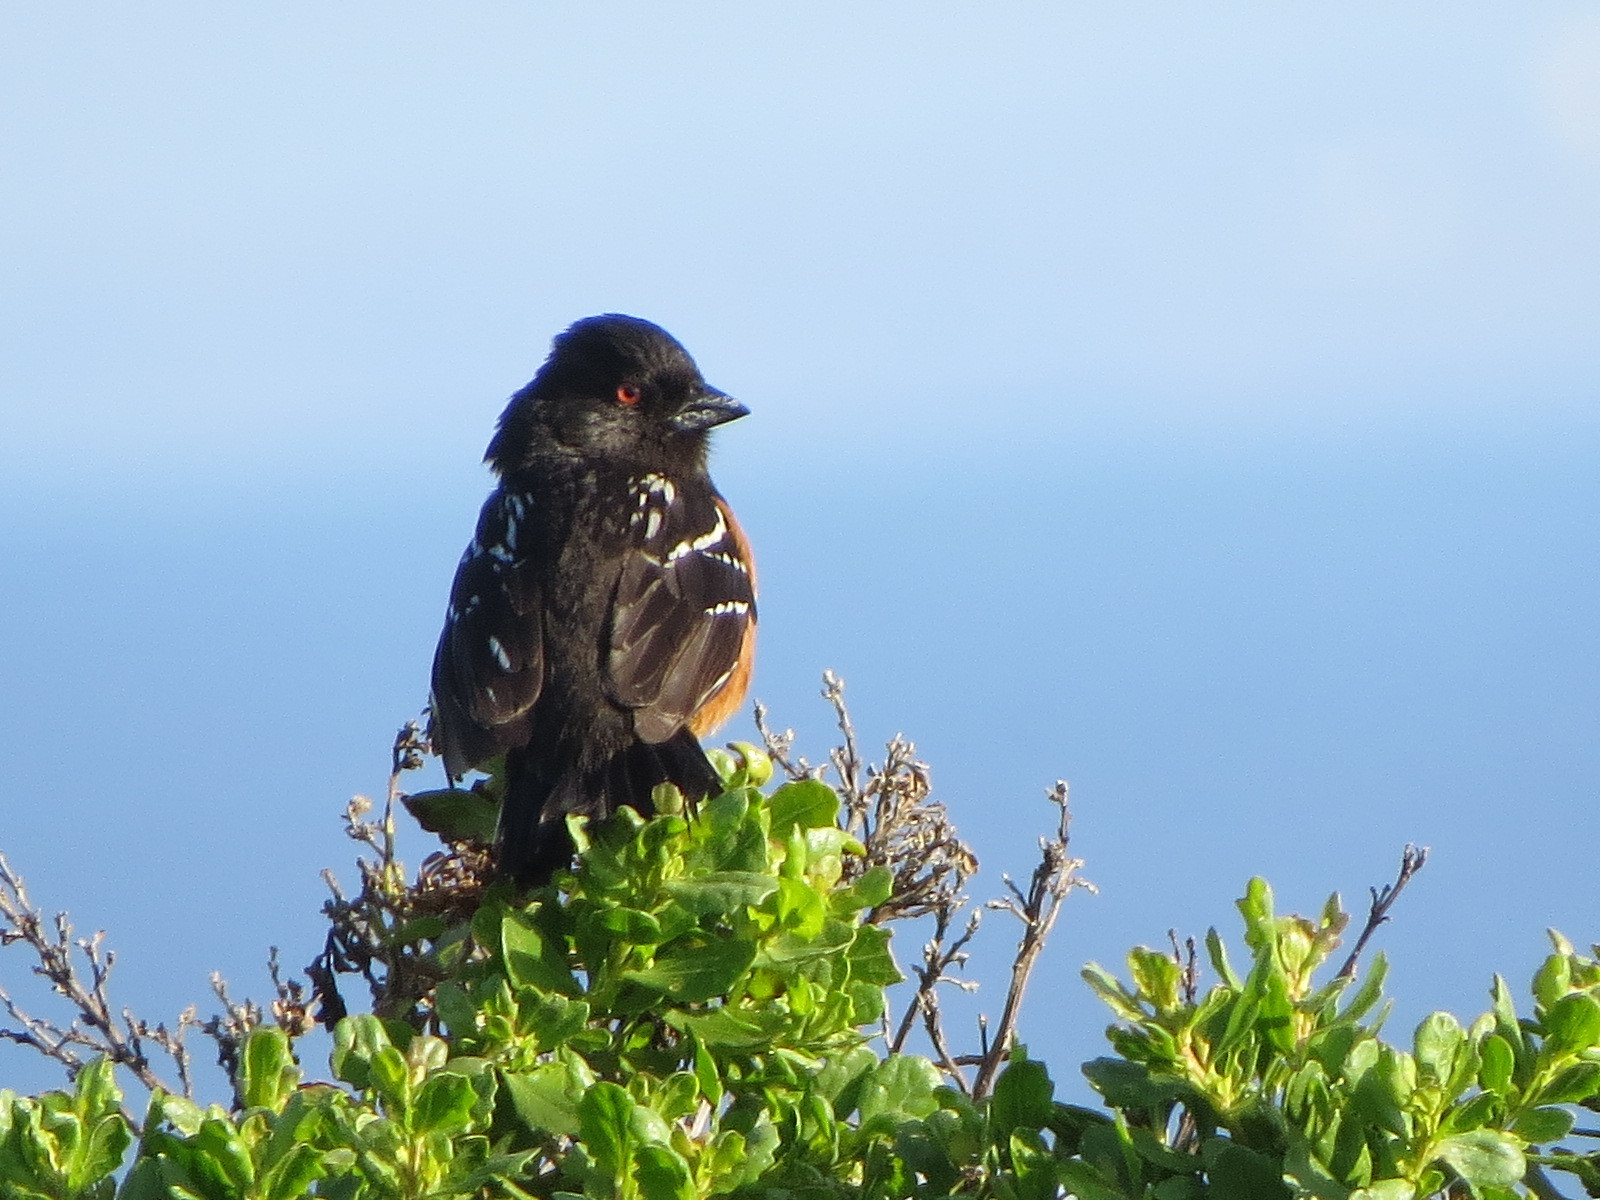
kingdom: Animalia
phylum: Chordata
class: Aves
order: Passeriformes
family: Passerellidae
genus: Pipilo
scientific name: Pipilo maculatus
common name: Spotted towhee
